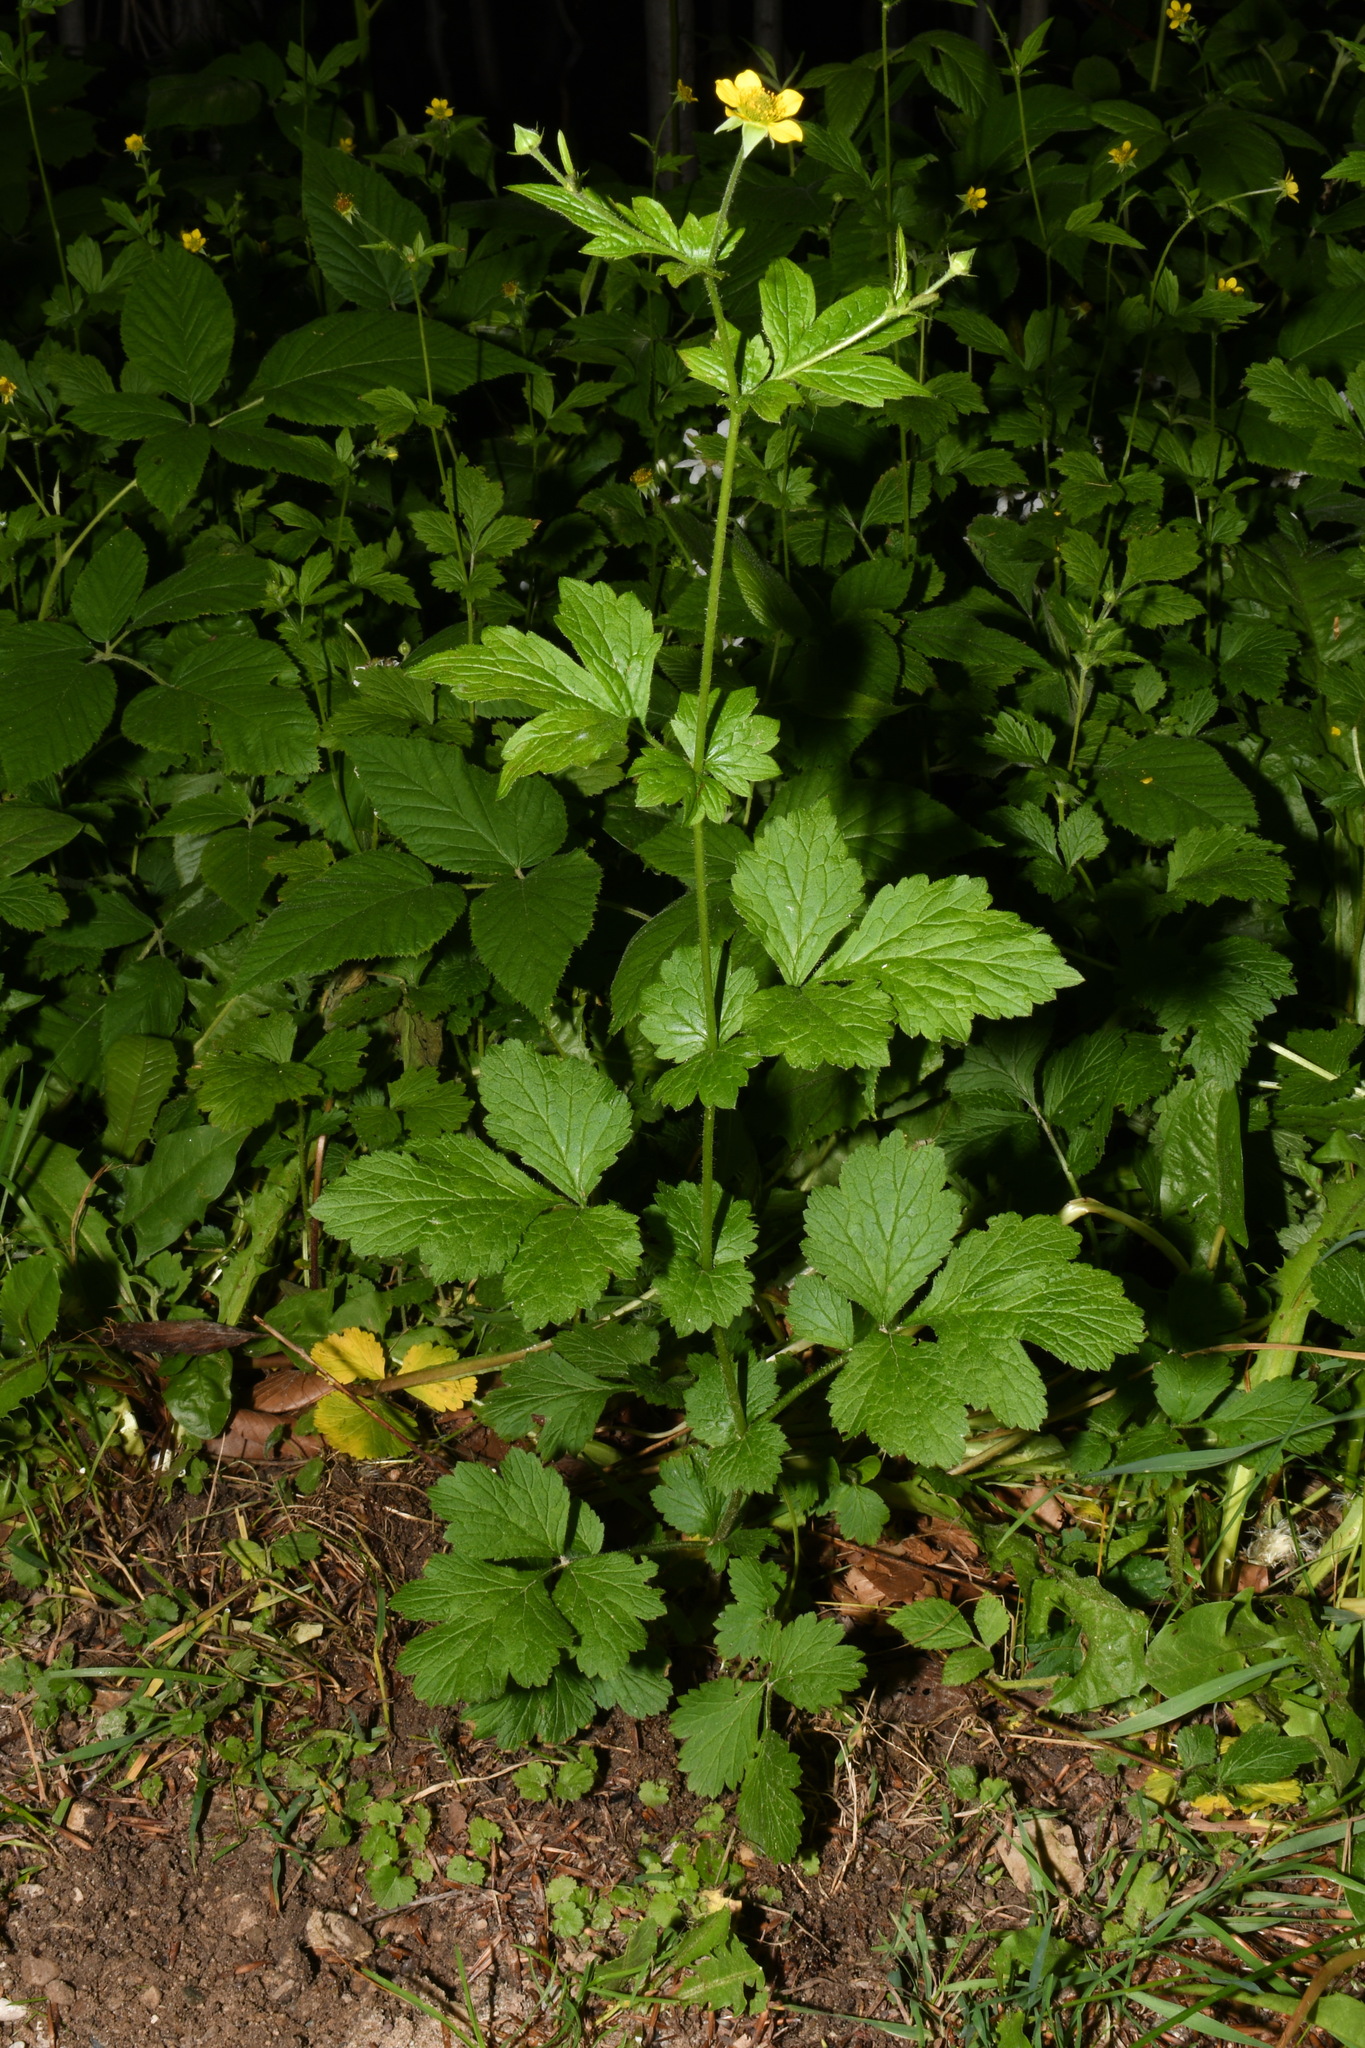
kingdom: Plantae
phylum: Tracheophyta
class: Magnoliopsida
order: Rosales
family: Rosaceae
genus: Geum
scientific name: Geum urbanum
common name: Wood avens
